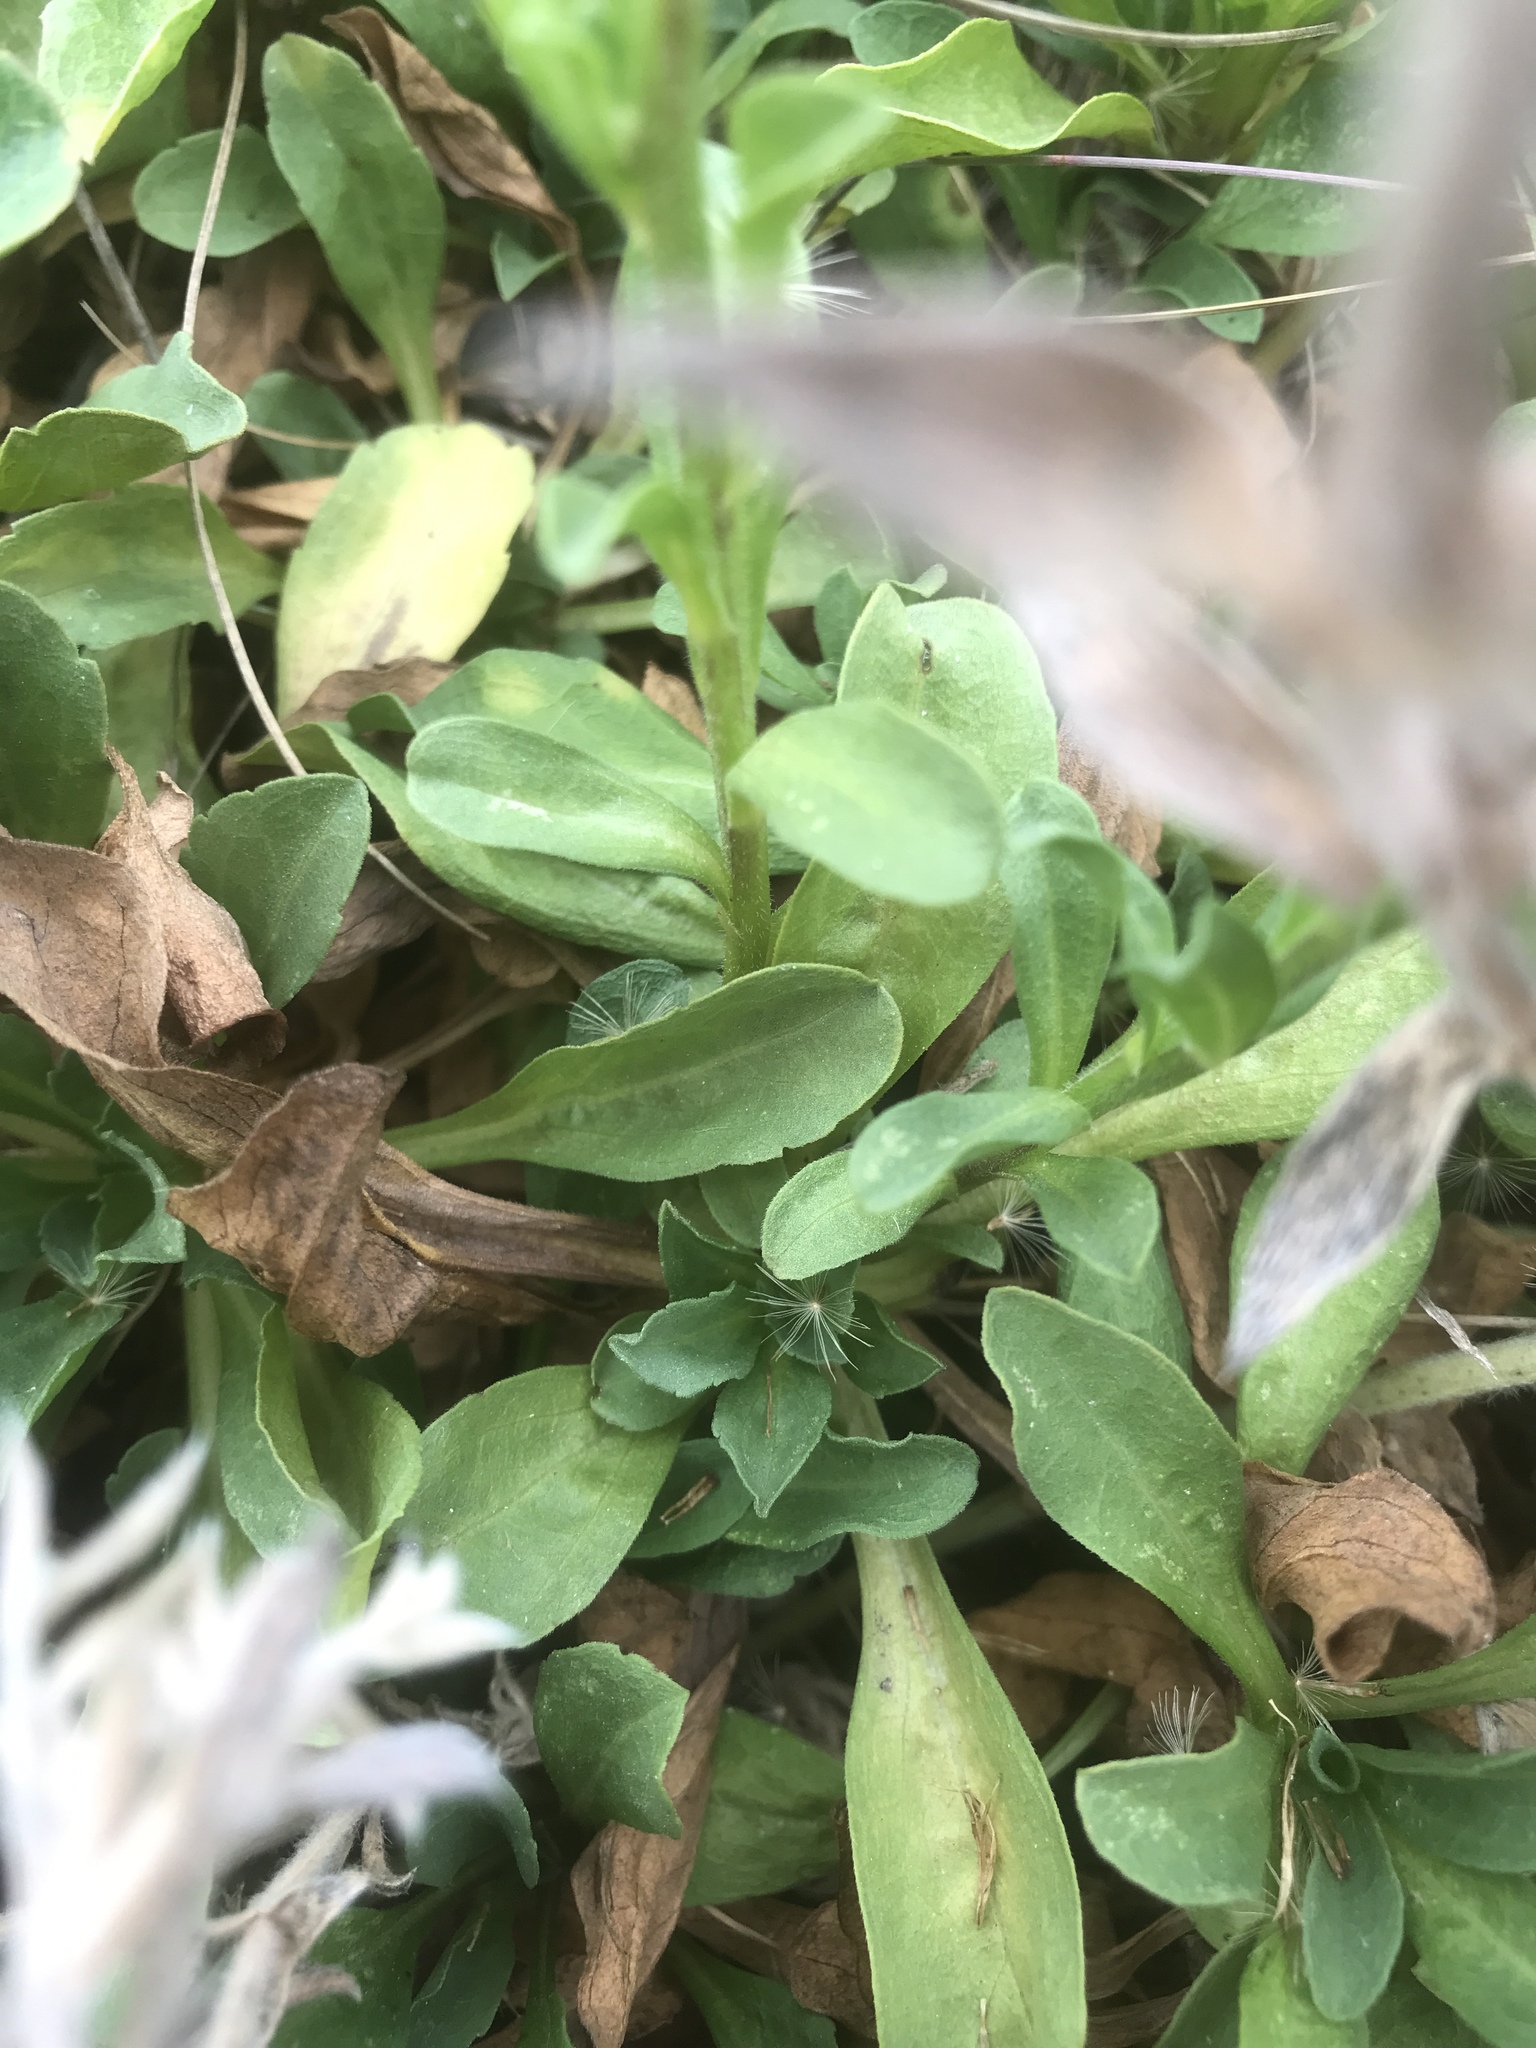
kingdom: Plantae
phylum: Tracheophyta
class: Magnoliopsida
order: Asterales
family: Asteraceae
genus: Erigeron
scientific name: Erigeron glaucus
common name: Seaside daisy
